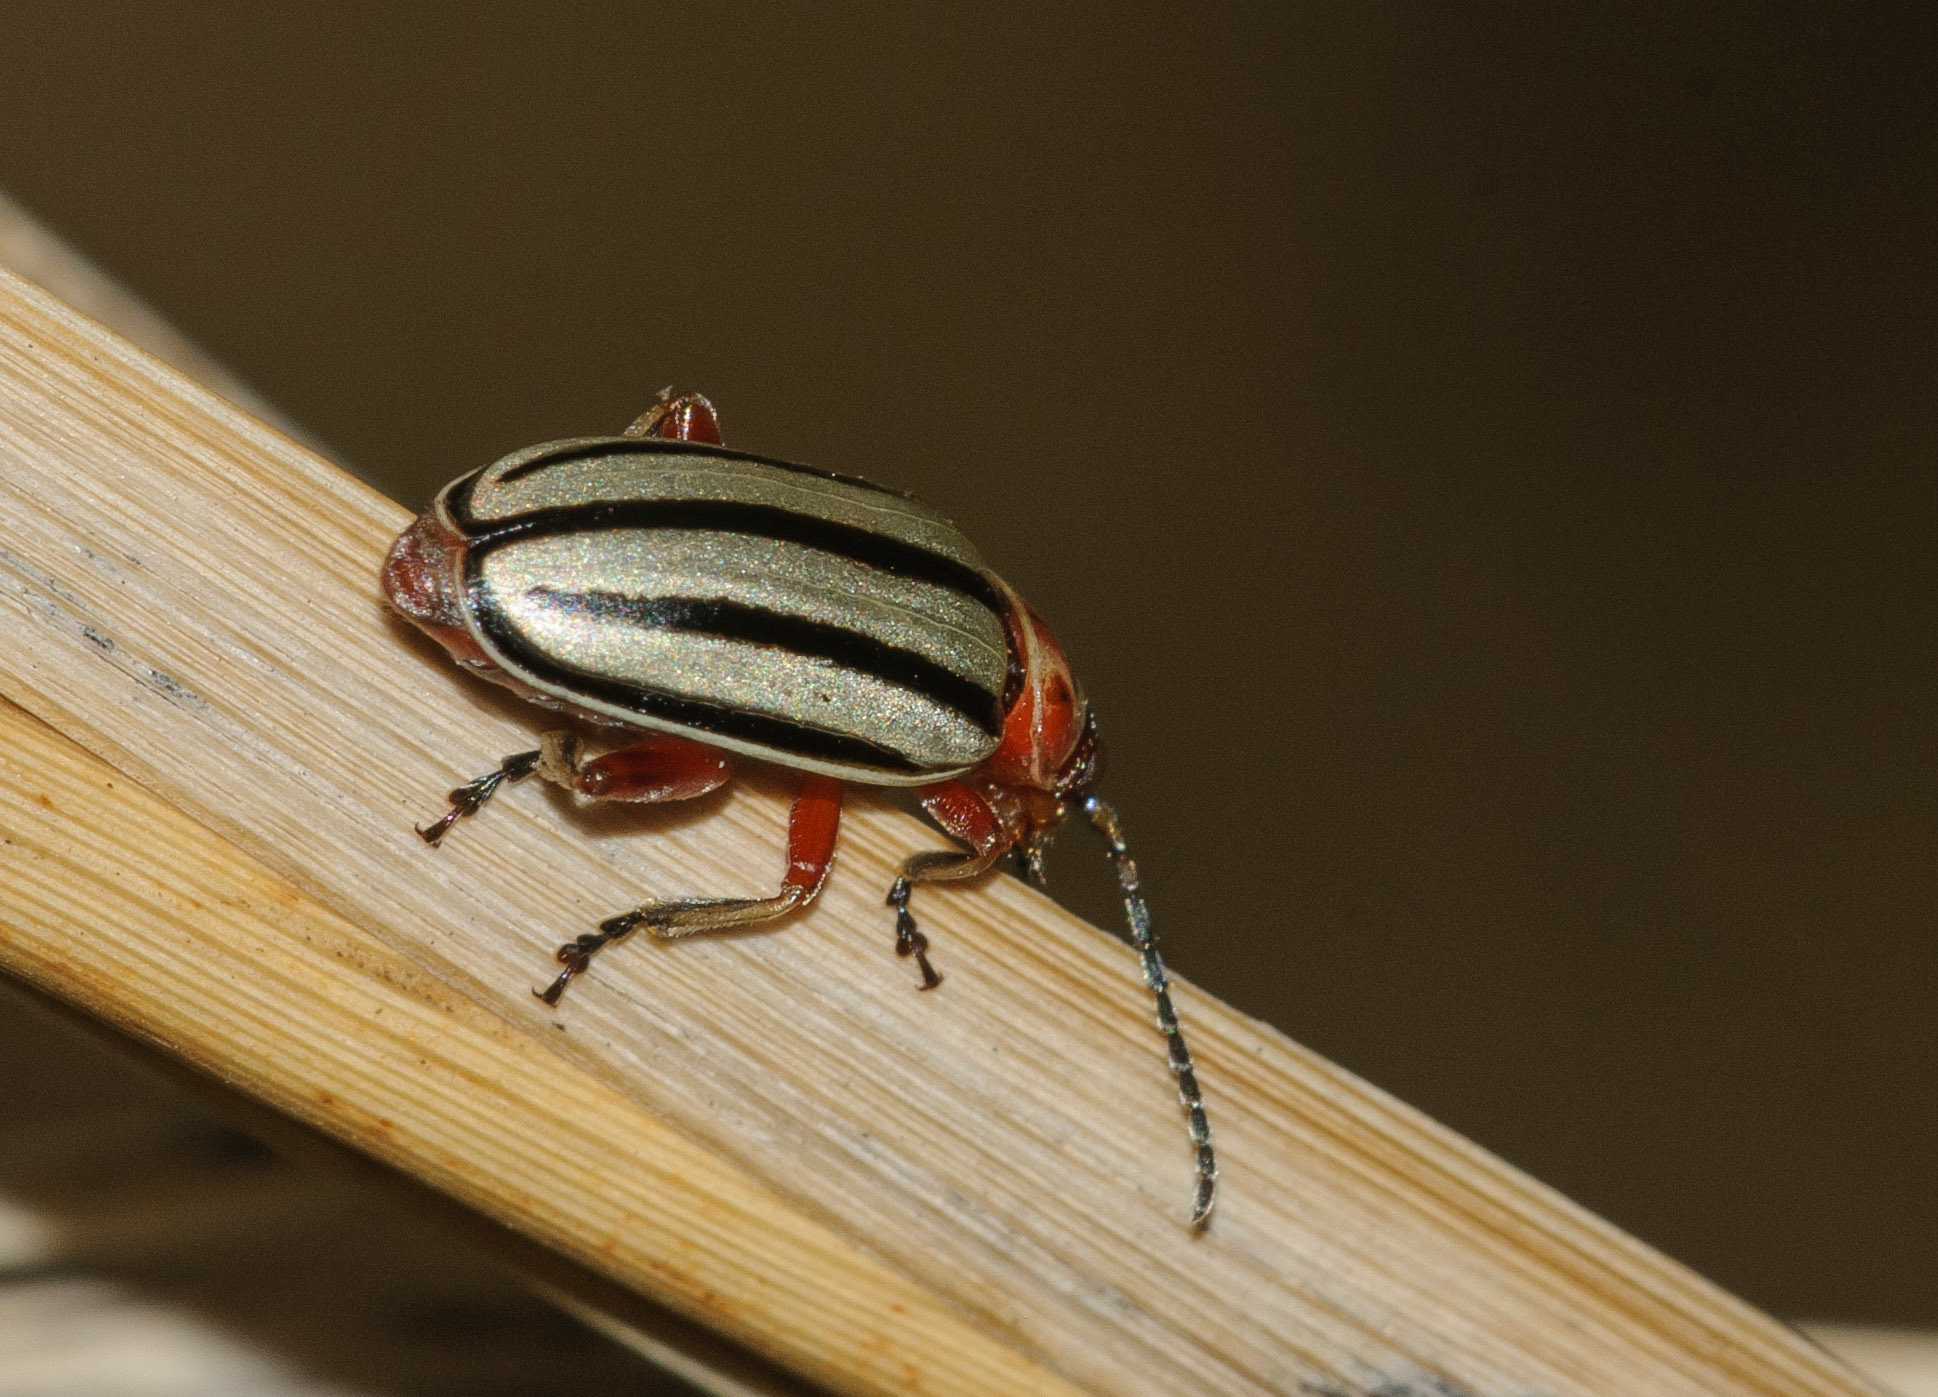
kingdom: Animalia
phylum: Arthropoda
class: Insecta
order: Coleoptera
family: Chrysomelidae
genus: Disonycha
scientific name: Disonycha alternata
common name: Striped willow leaf beetle
